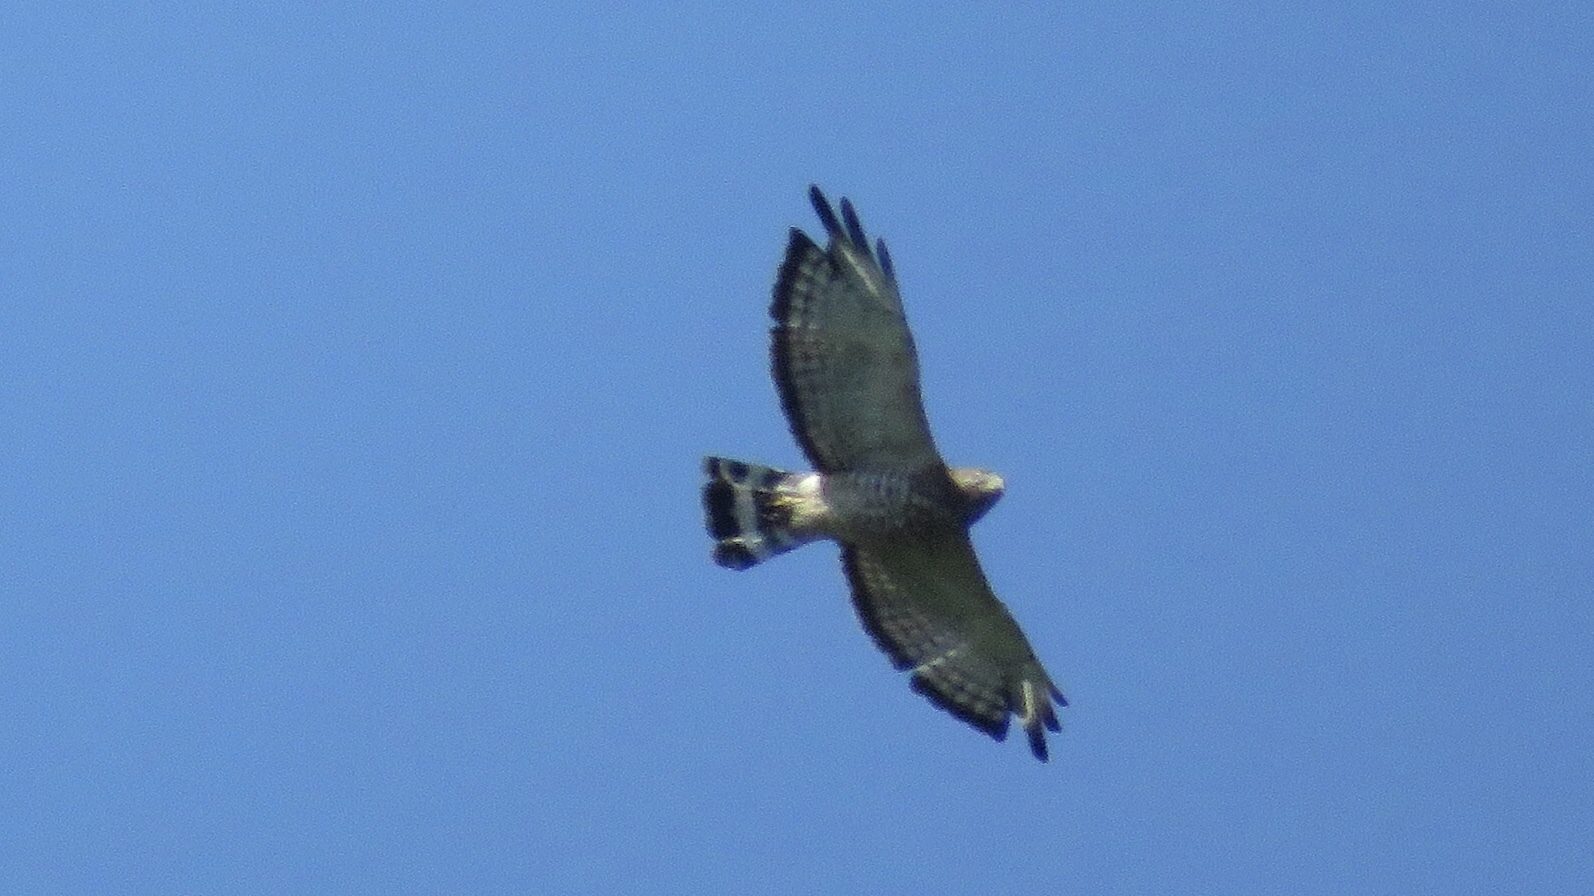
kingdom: Animalia
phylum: Chordata
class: Aves
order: Accipitriformes
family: Accipitridae
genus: Buteo
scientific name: Buteo platypterus
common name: Broad-winged hawk
